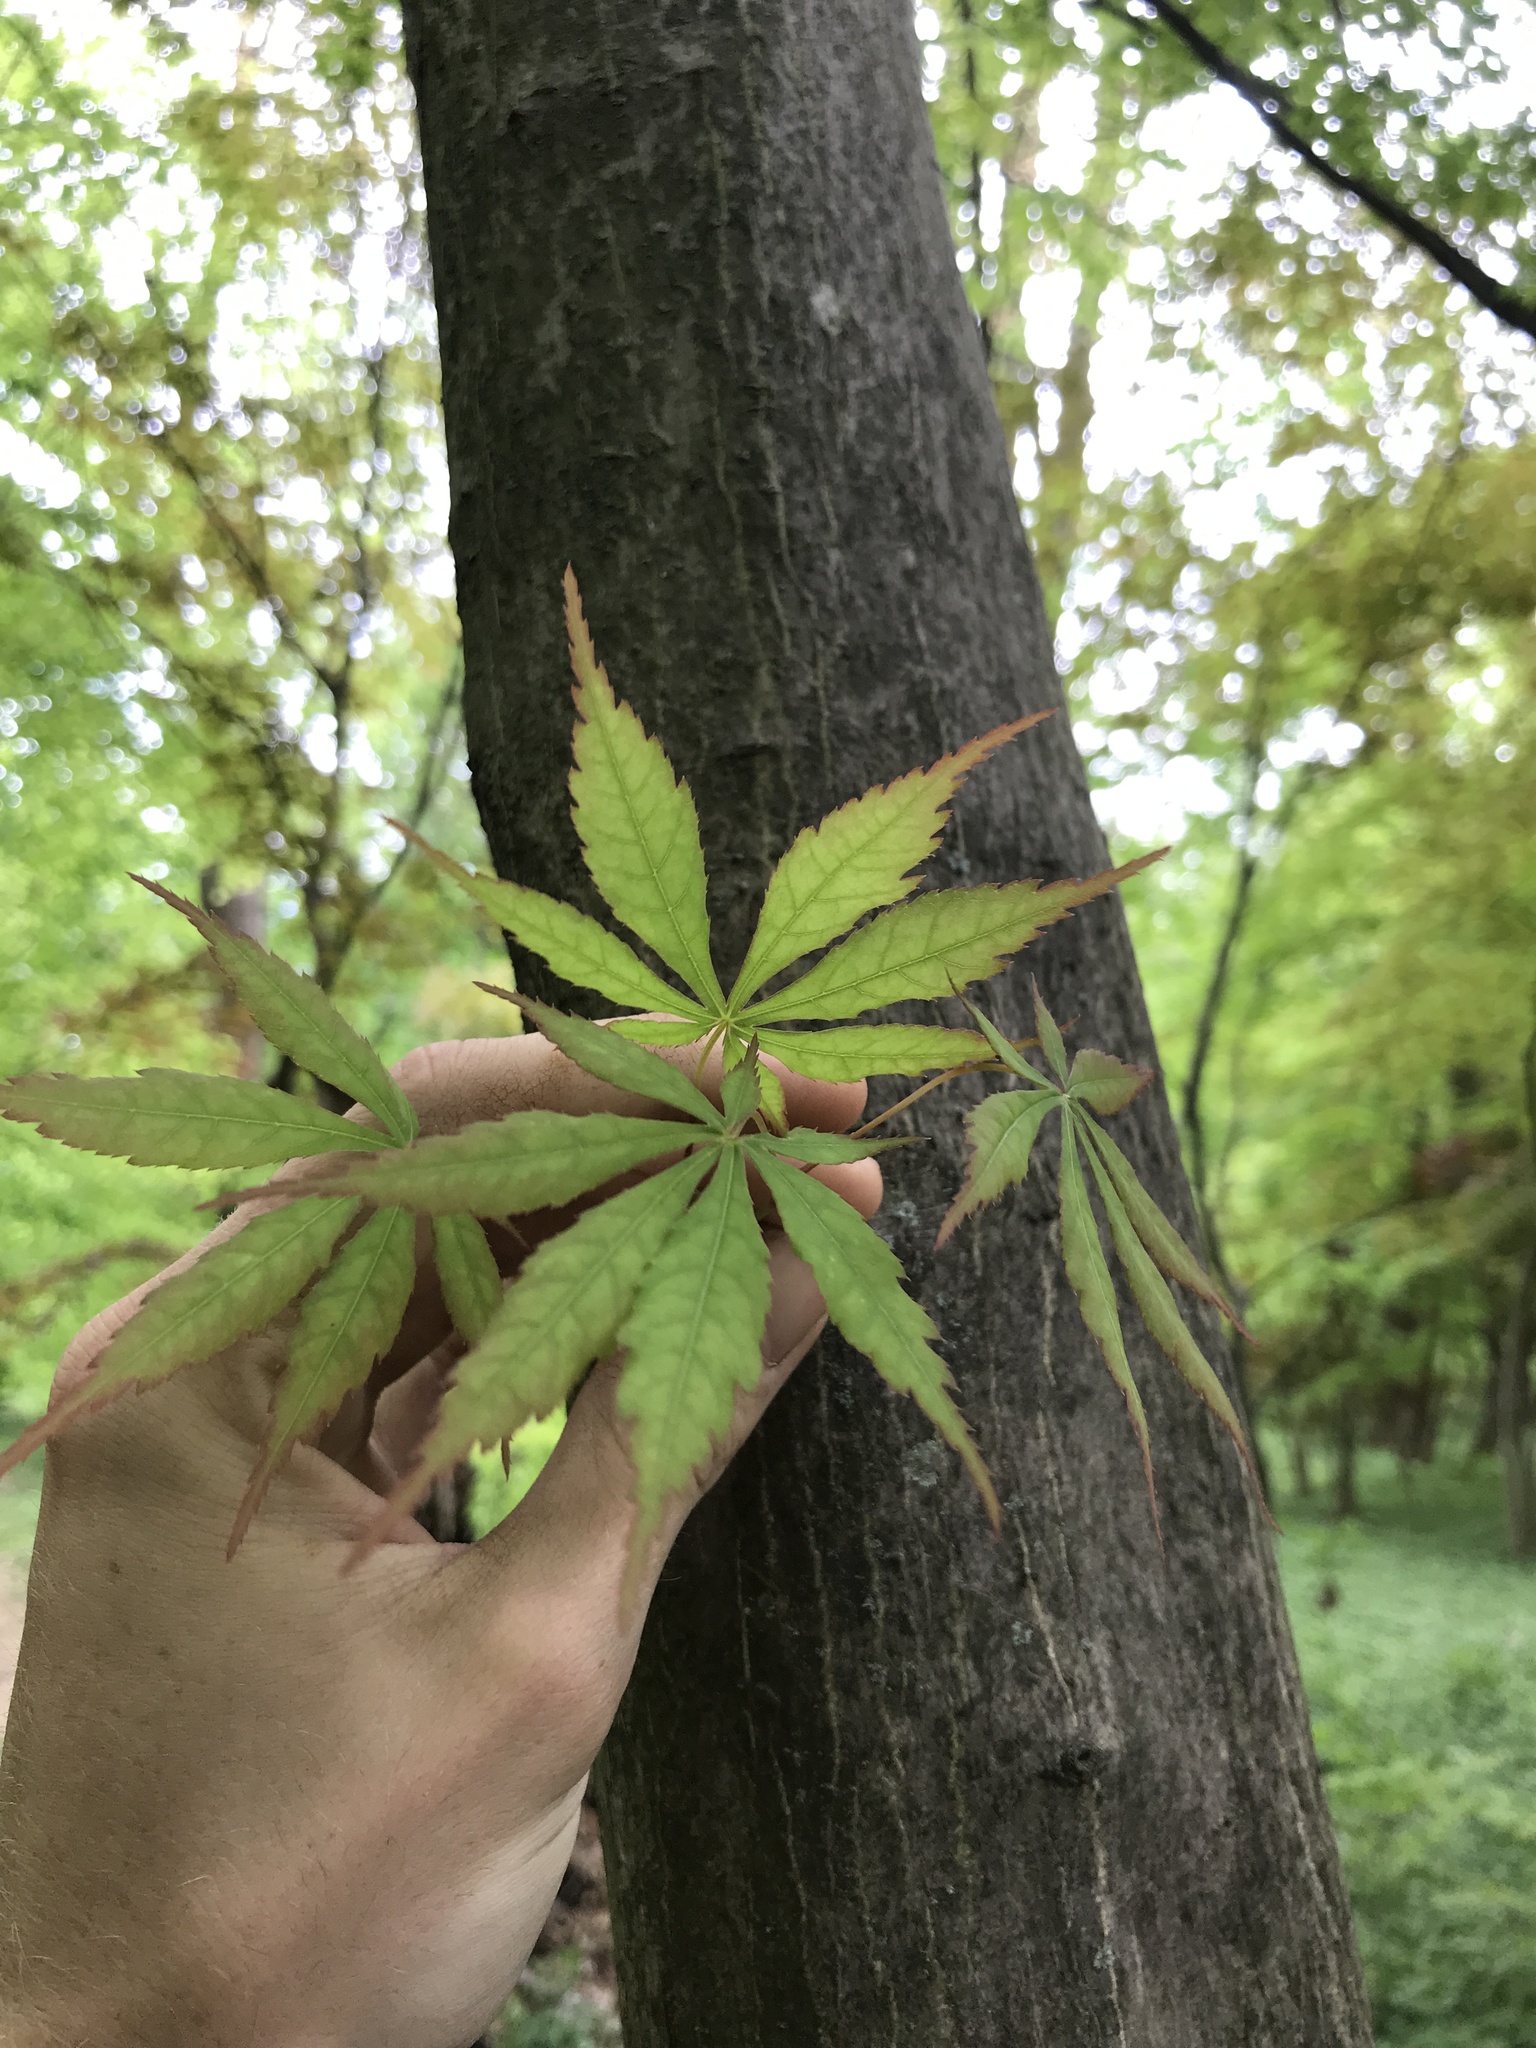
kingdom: Plantae
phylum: Tracheophyta
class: Magnoliopsida
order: Sapindales
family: Sapindaceae
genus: Acer
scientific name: Acer palmatum
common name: Japanese maple
